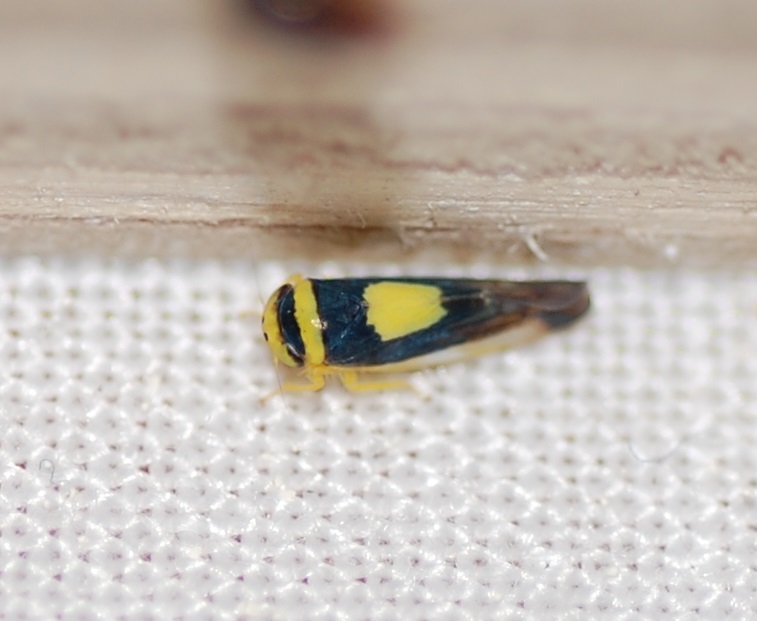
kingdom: Animalia
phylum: Arthropoda
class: Insecta
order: Hemiptera
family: Cicadellidae
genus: Colladonus
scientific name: Colladonus clitellarius
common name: The saddleback leafhopper
